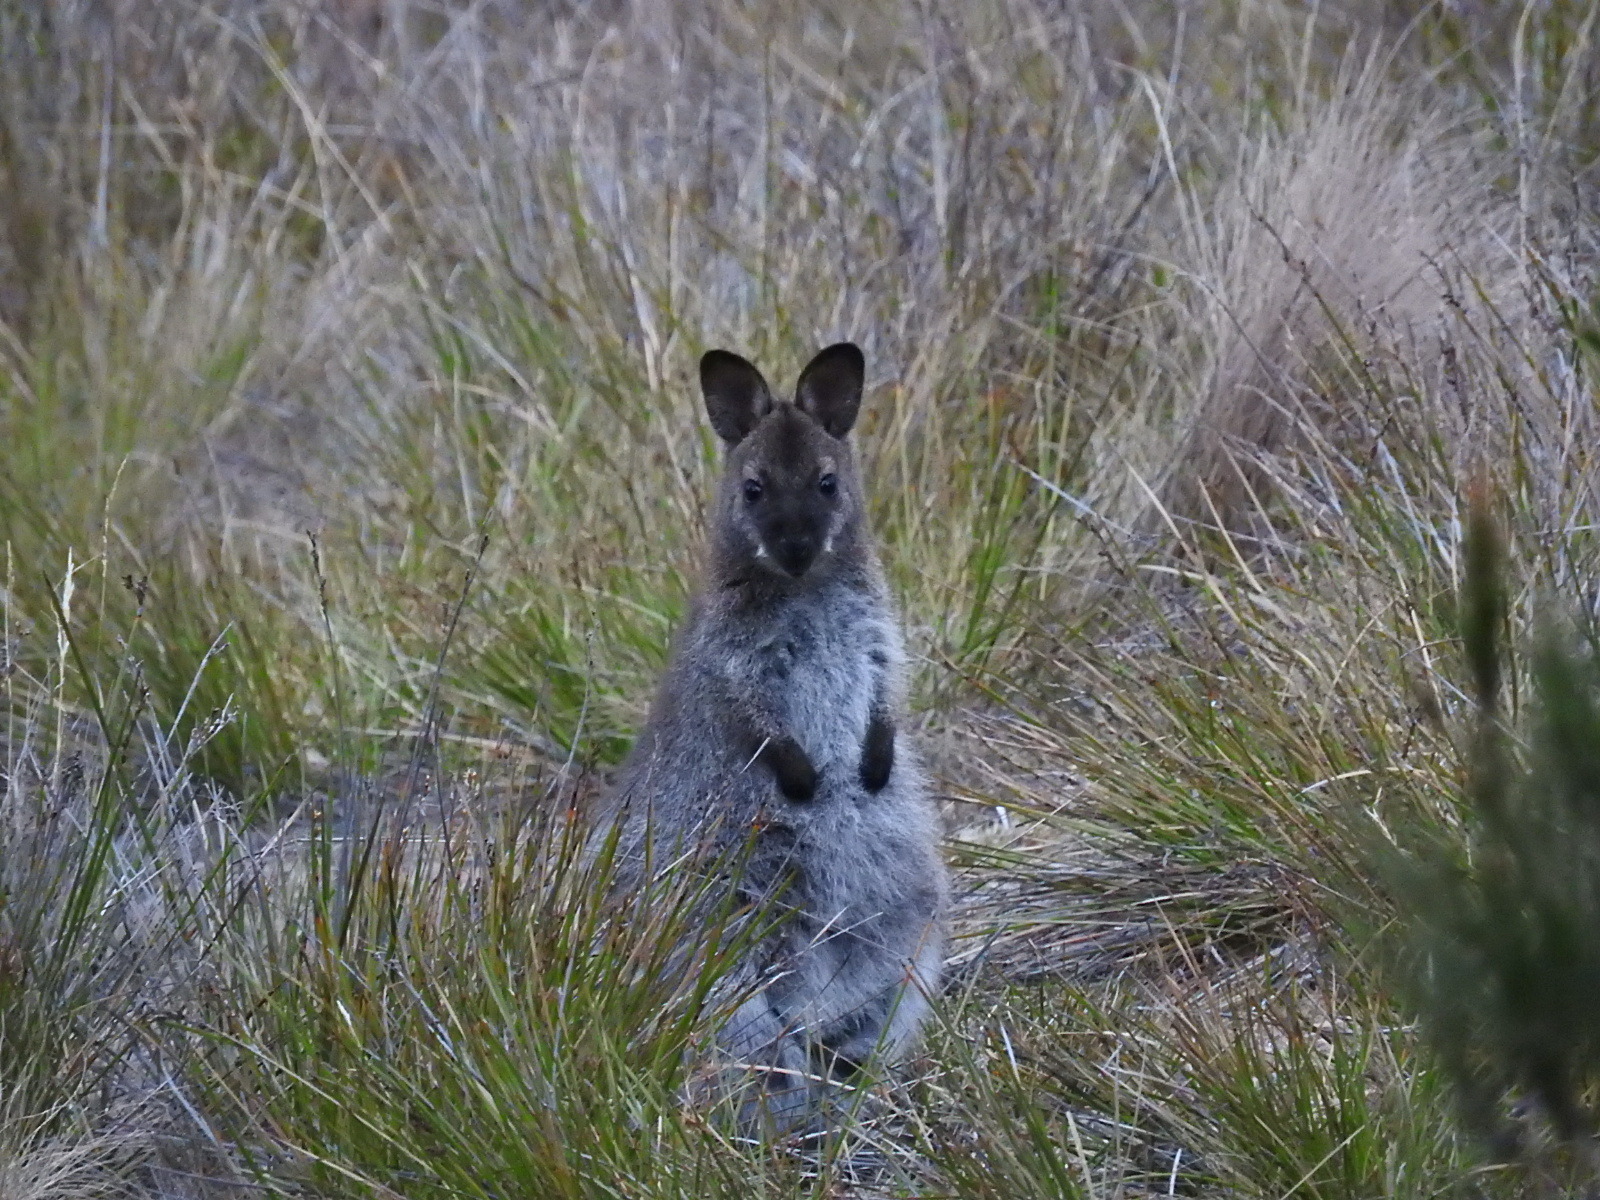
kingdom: Animalia
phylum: Chordata
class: Mammalia
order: Diprotodontia
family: Macropodidae
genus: Notamacropus
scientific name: Notamacropus rufogriseus
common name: Red-necked wallaby
